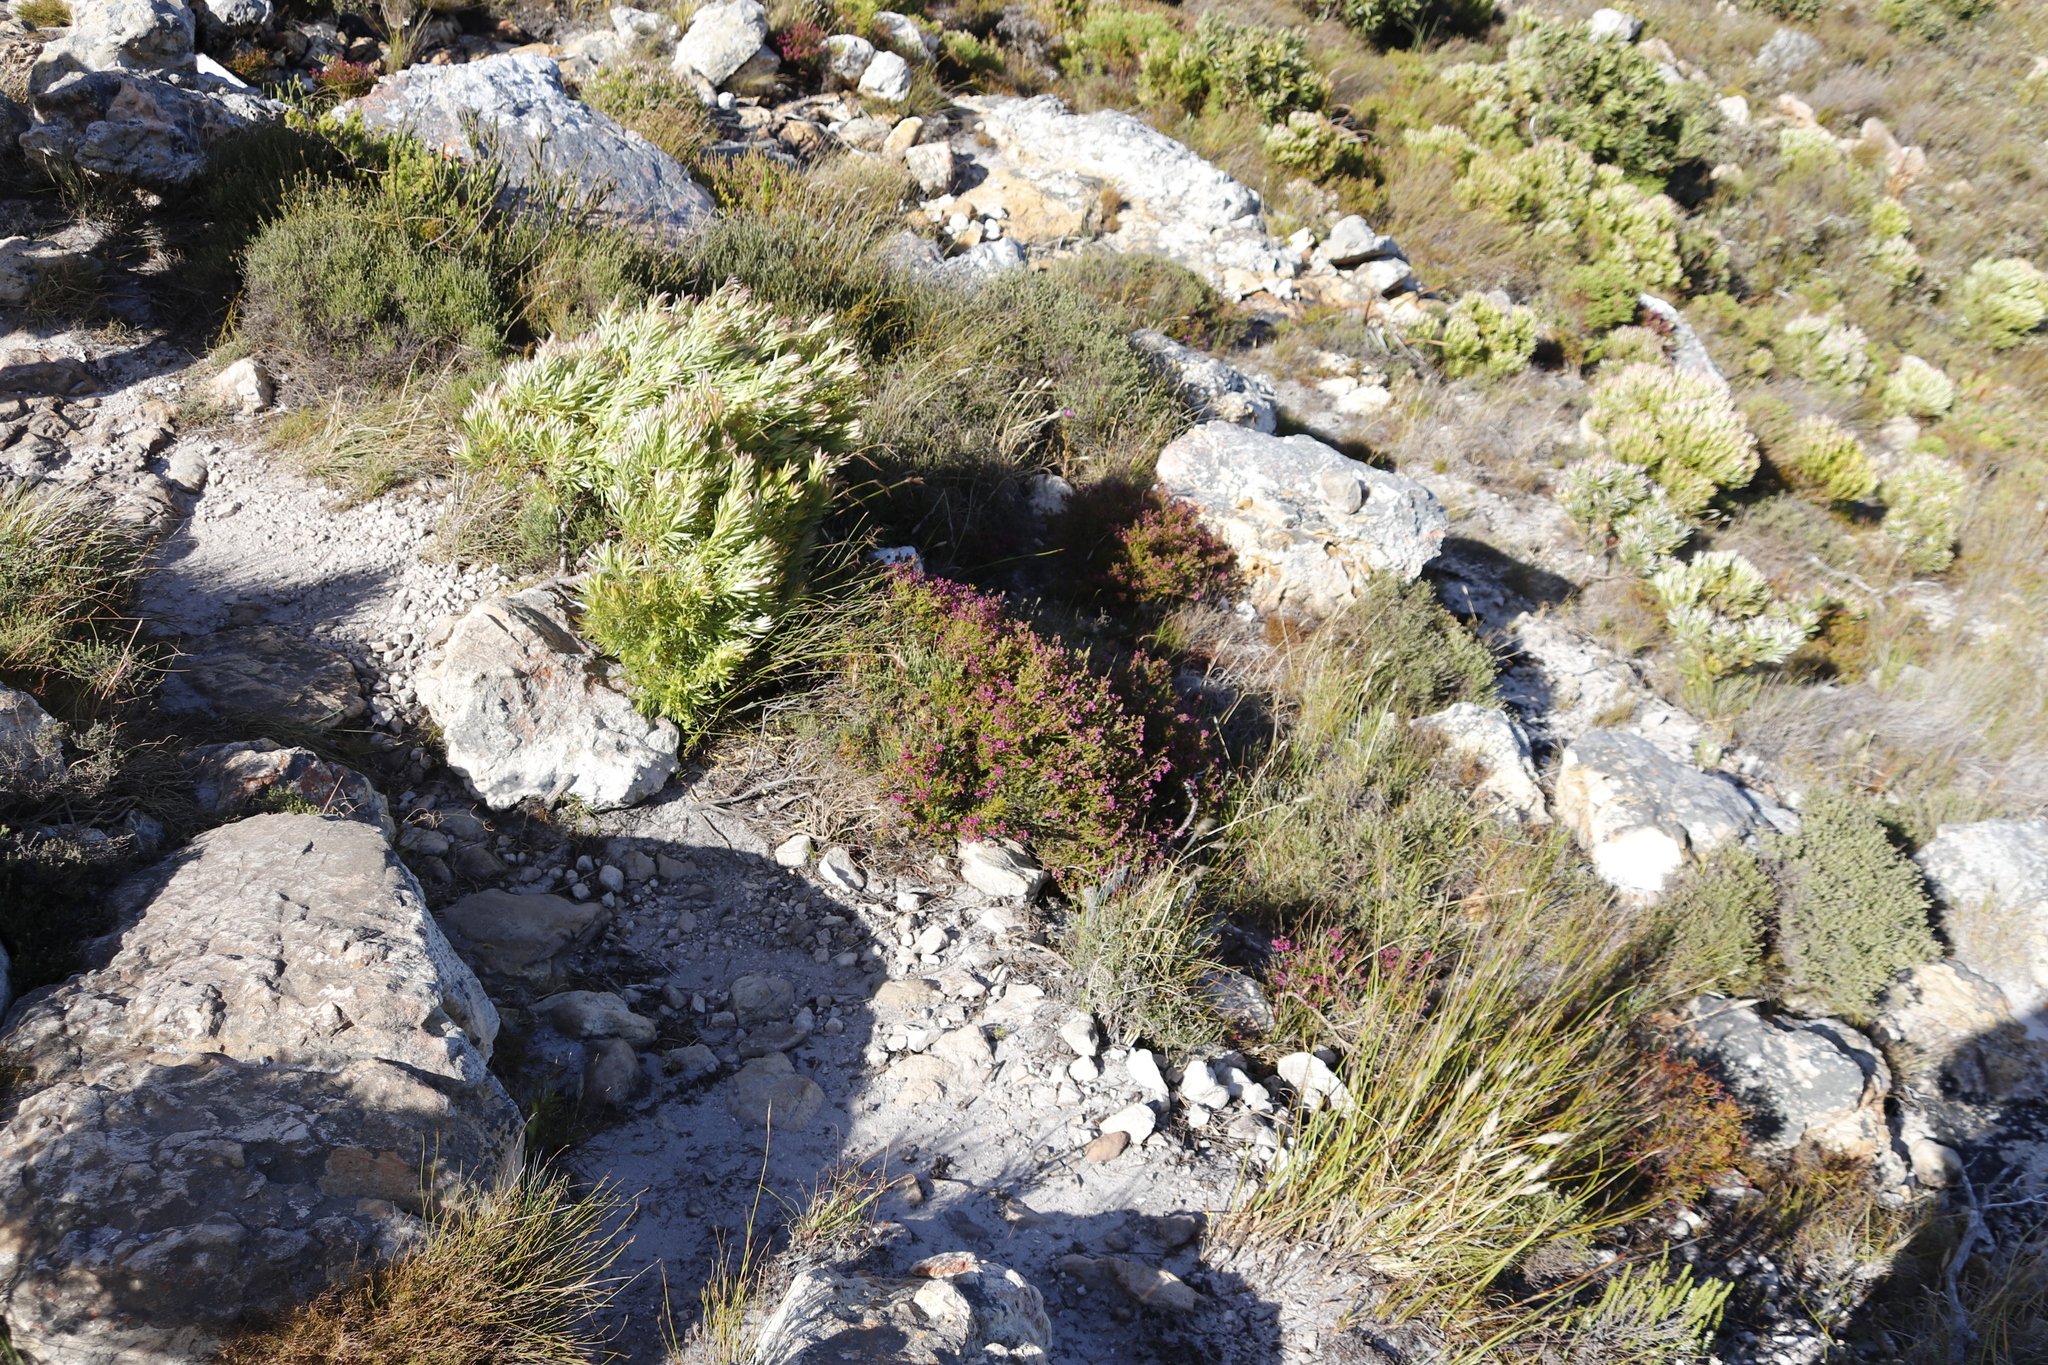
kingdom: Plantae
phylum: Tracheophyta
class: Magnoliopsida
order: Ericales
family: Ericaceae
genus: Erica
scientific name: Erica multumbellifera
